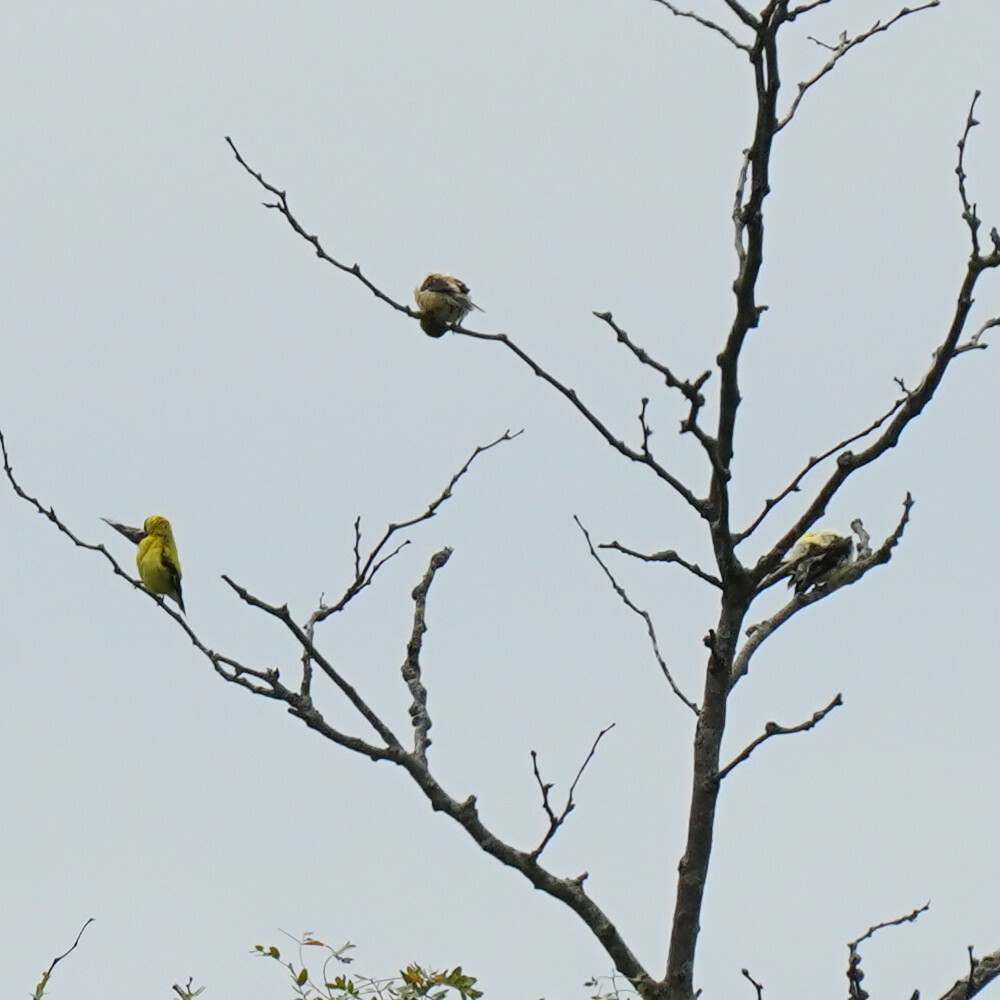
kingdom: Animalia
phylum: Chordata
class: Aves
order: Passeriformes
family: Fringillidae
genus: Spinus
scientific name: Spinus tristis
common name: American goldfinch
